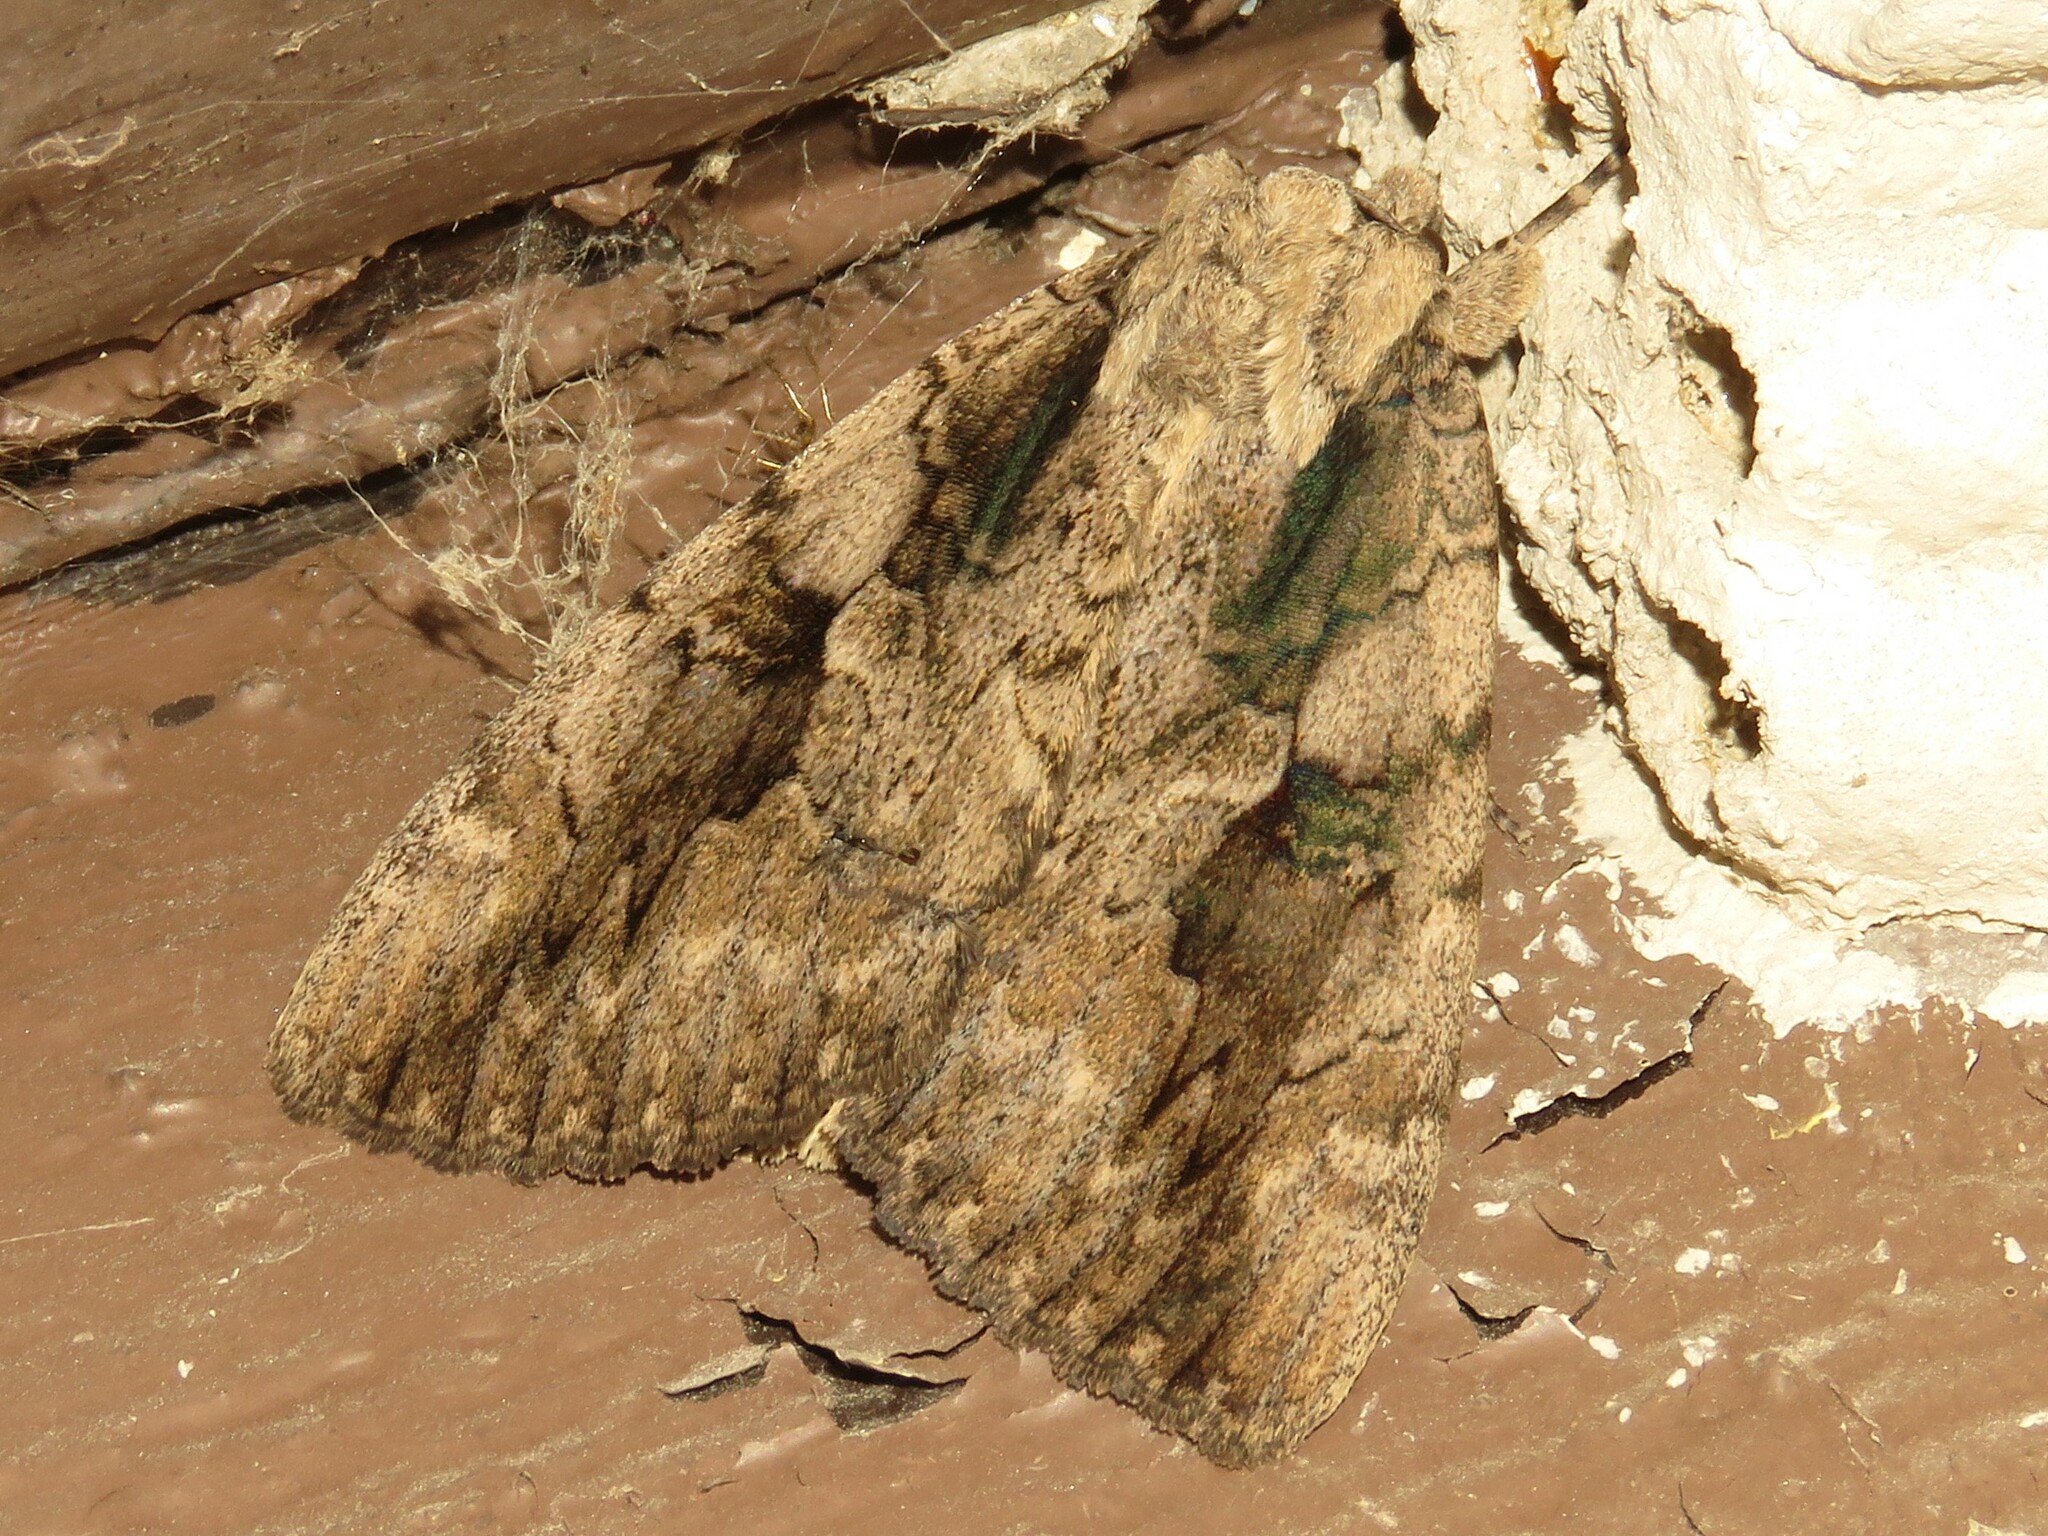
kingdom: Animalia
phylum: Arthropoda
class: Insecta
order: Lepidoptera
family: Erebidae
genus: Catocala
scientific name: Catocala amatrix
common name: Sweetheart underwing
